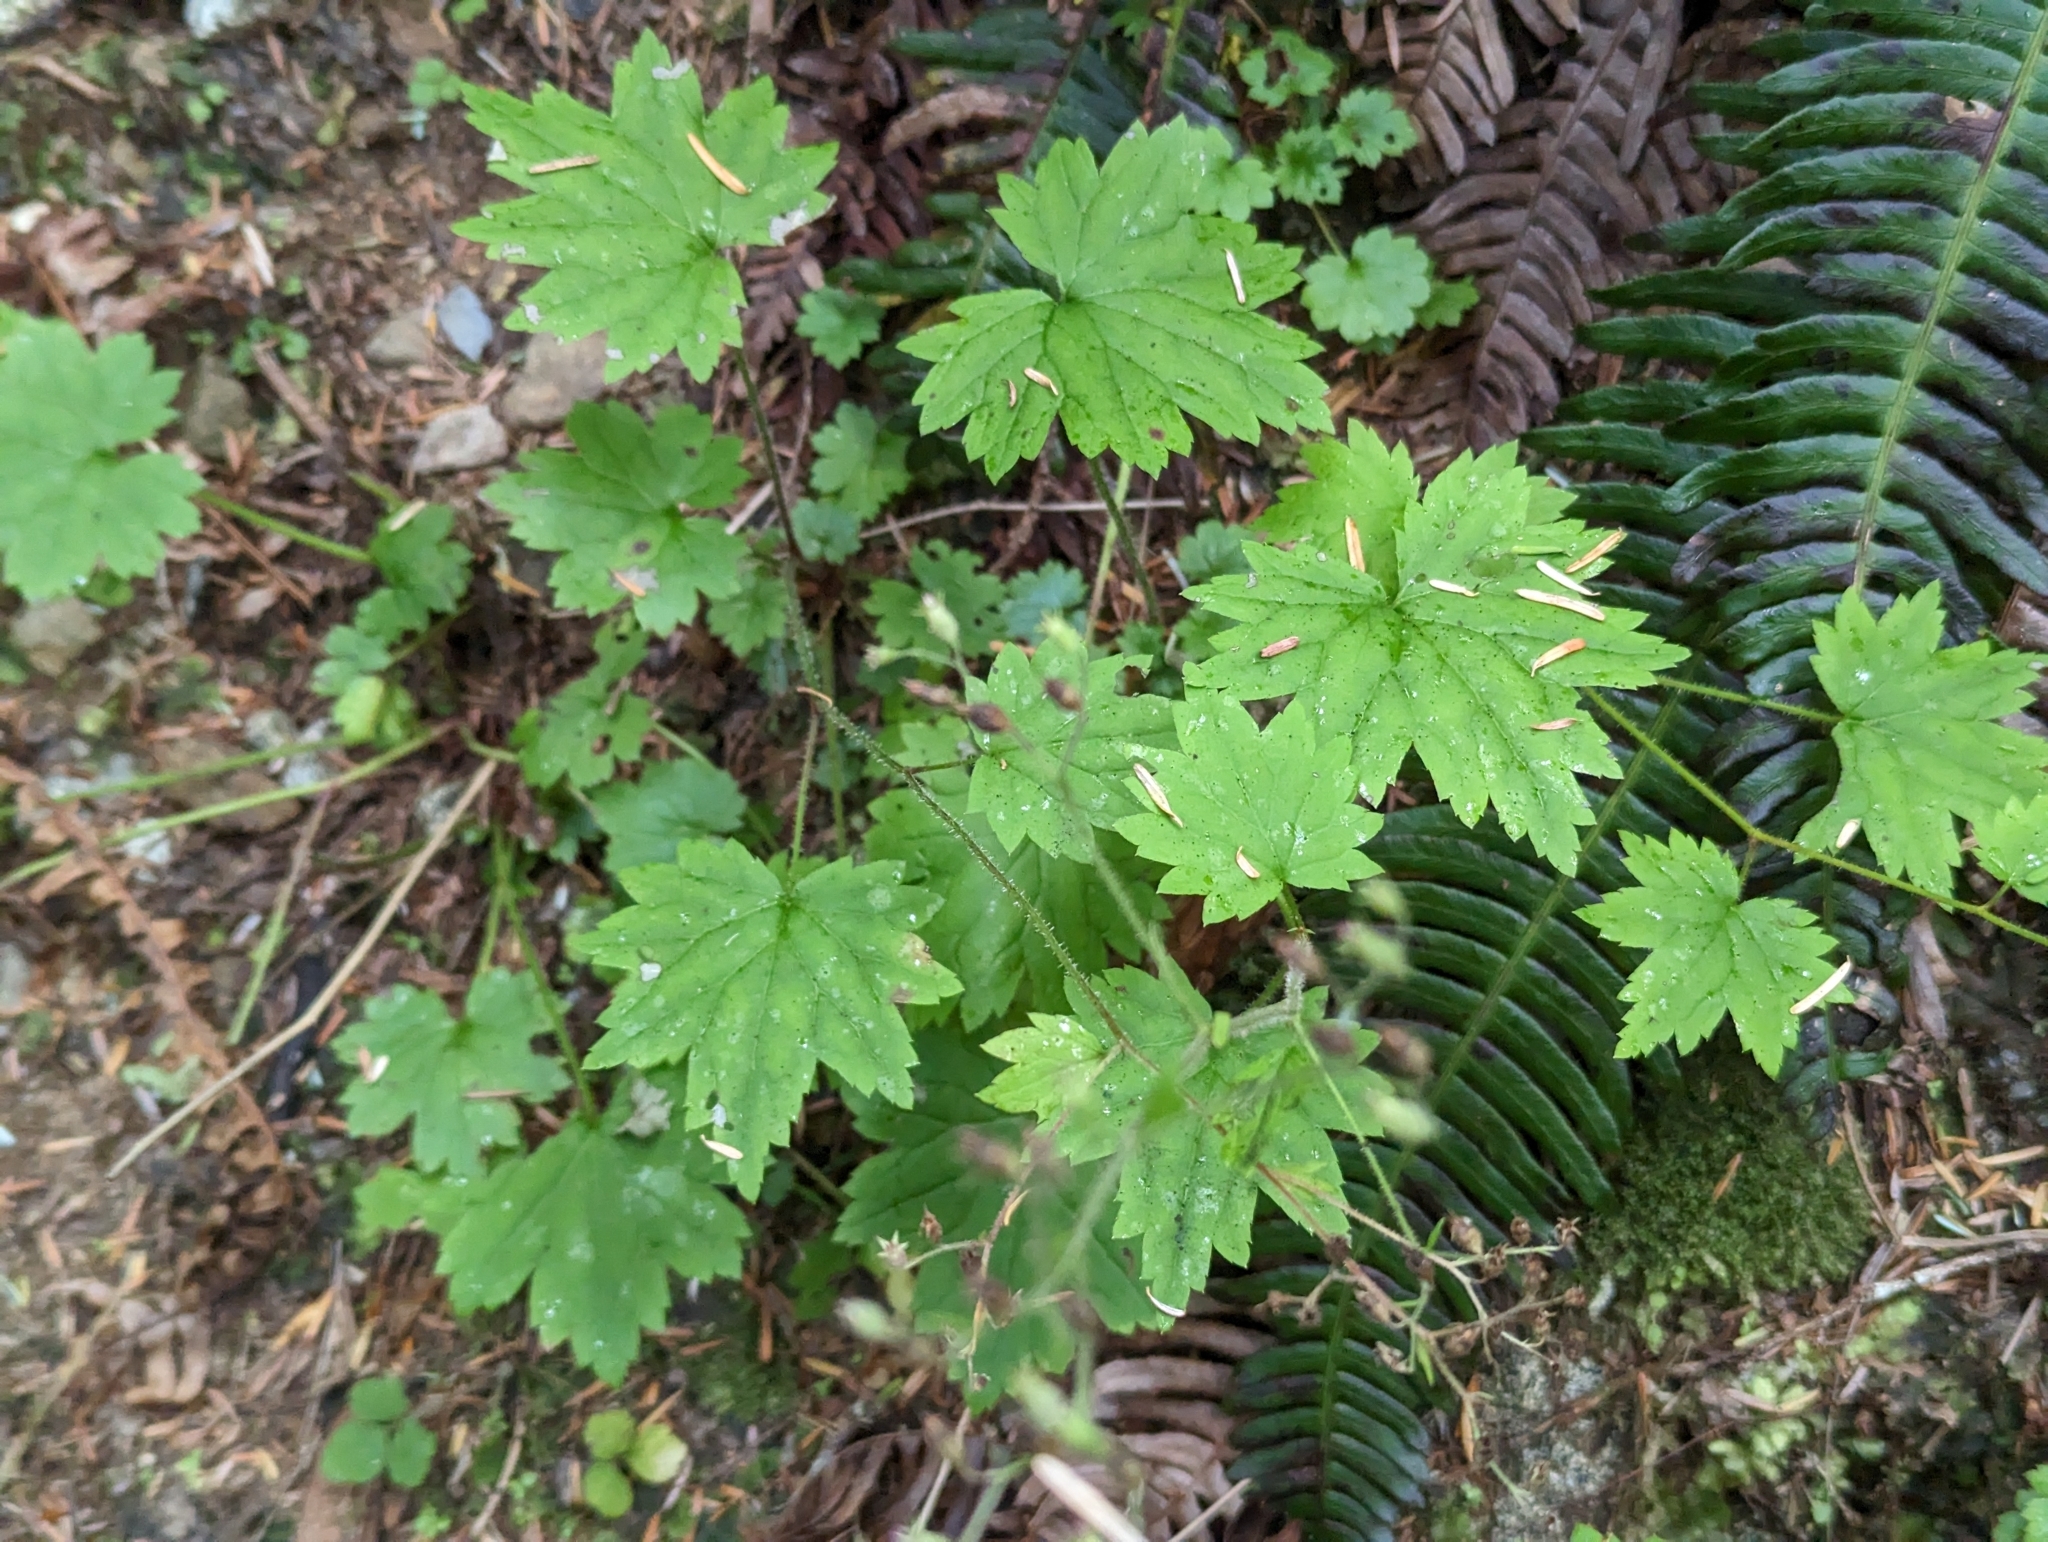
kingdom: Plantae
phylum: Tracheophyta
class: Magnoliopsida
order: Saxifragales
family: Saxifragaceae
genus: Boykinia
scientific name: Boykinia occidentalis
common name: Coast boykinia
